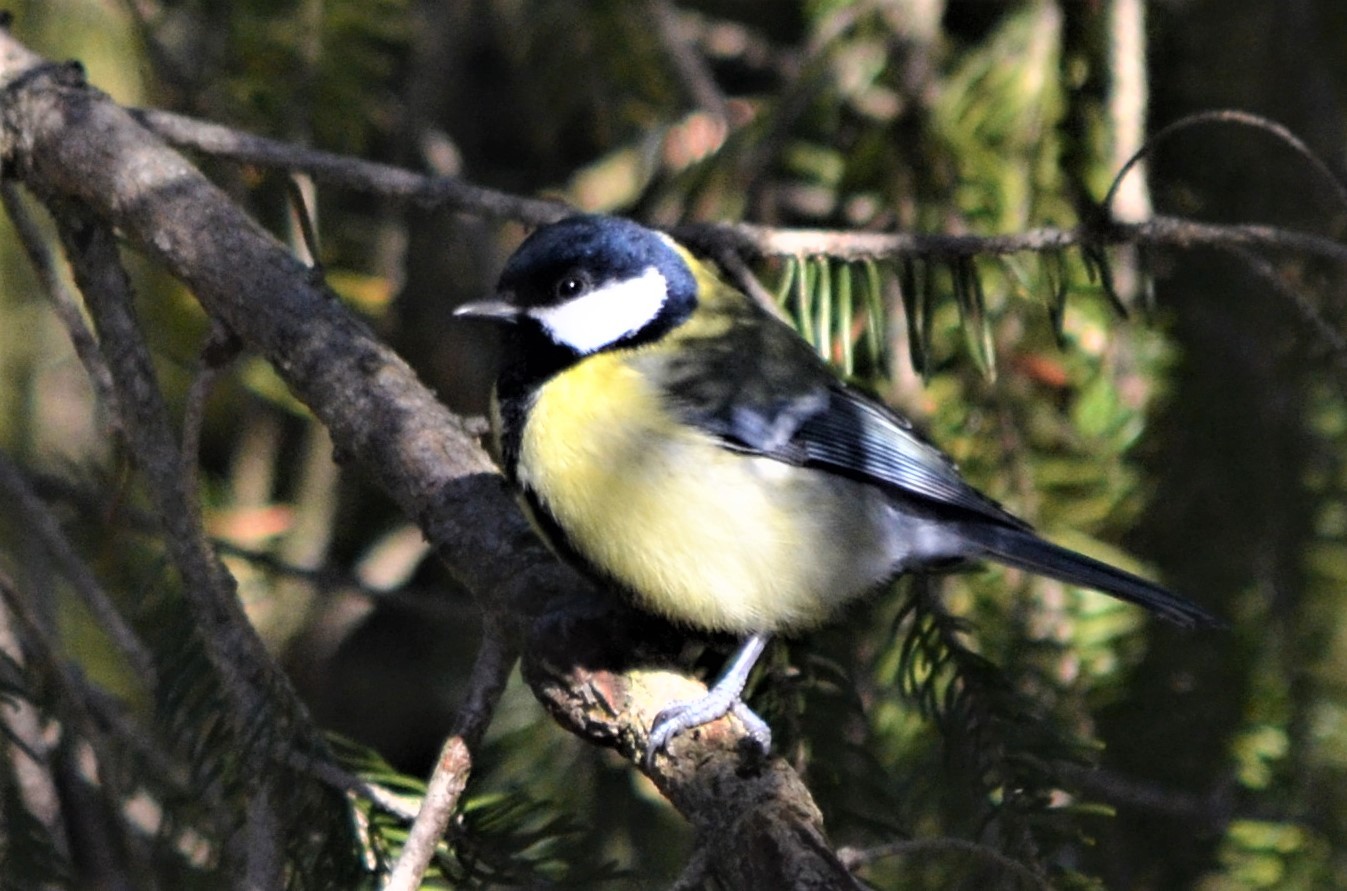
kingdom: Animalia
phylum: Chordata
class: Aves
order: Passeriformes
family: Paridae
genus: Parus
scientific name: Parus major
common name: Great tit
